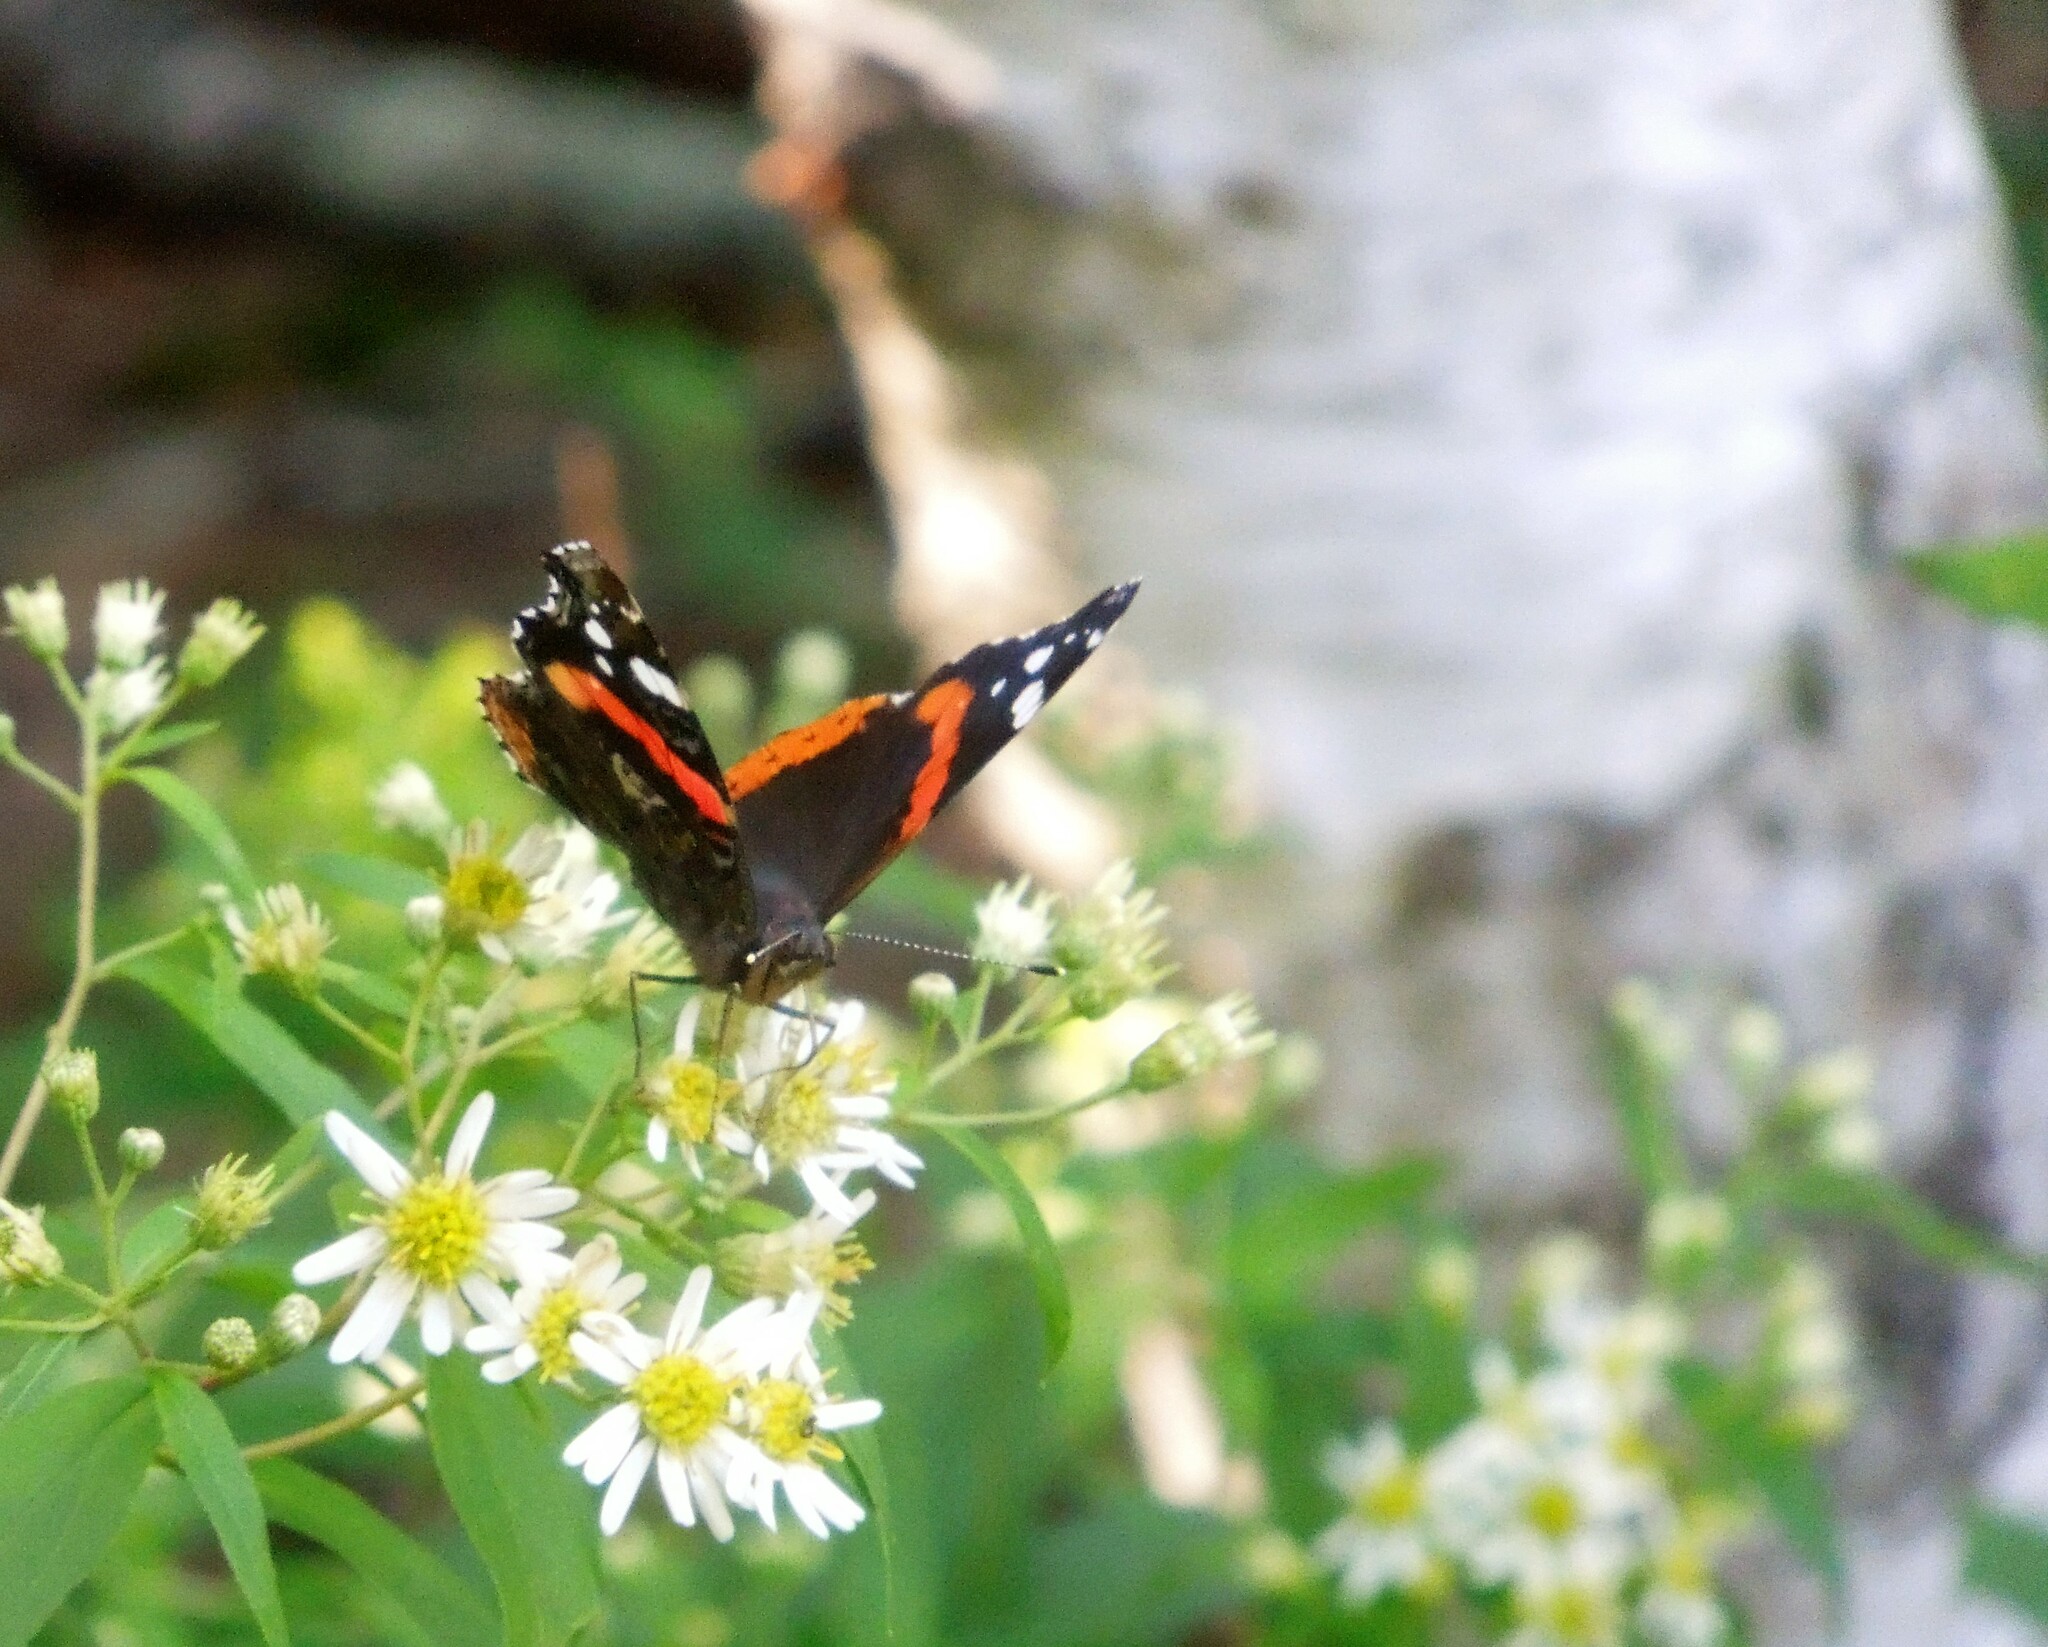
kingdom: Animalia
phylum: Arthropoda
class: Insecta
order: Lepidoptera
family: Nymphalidae
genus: Vanessa
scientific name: Vanessa atalanta
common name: Red admiral
